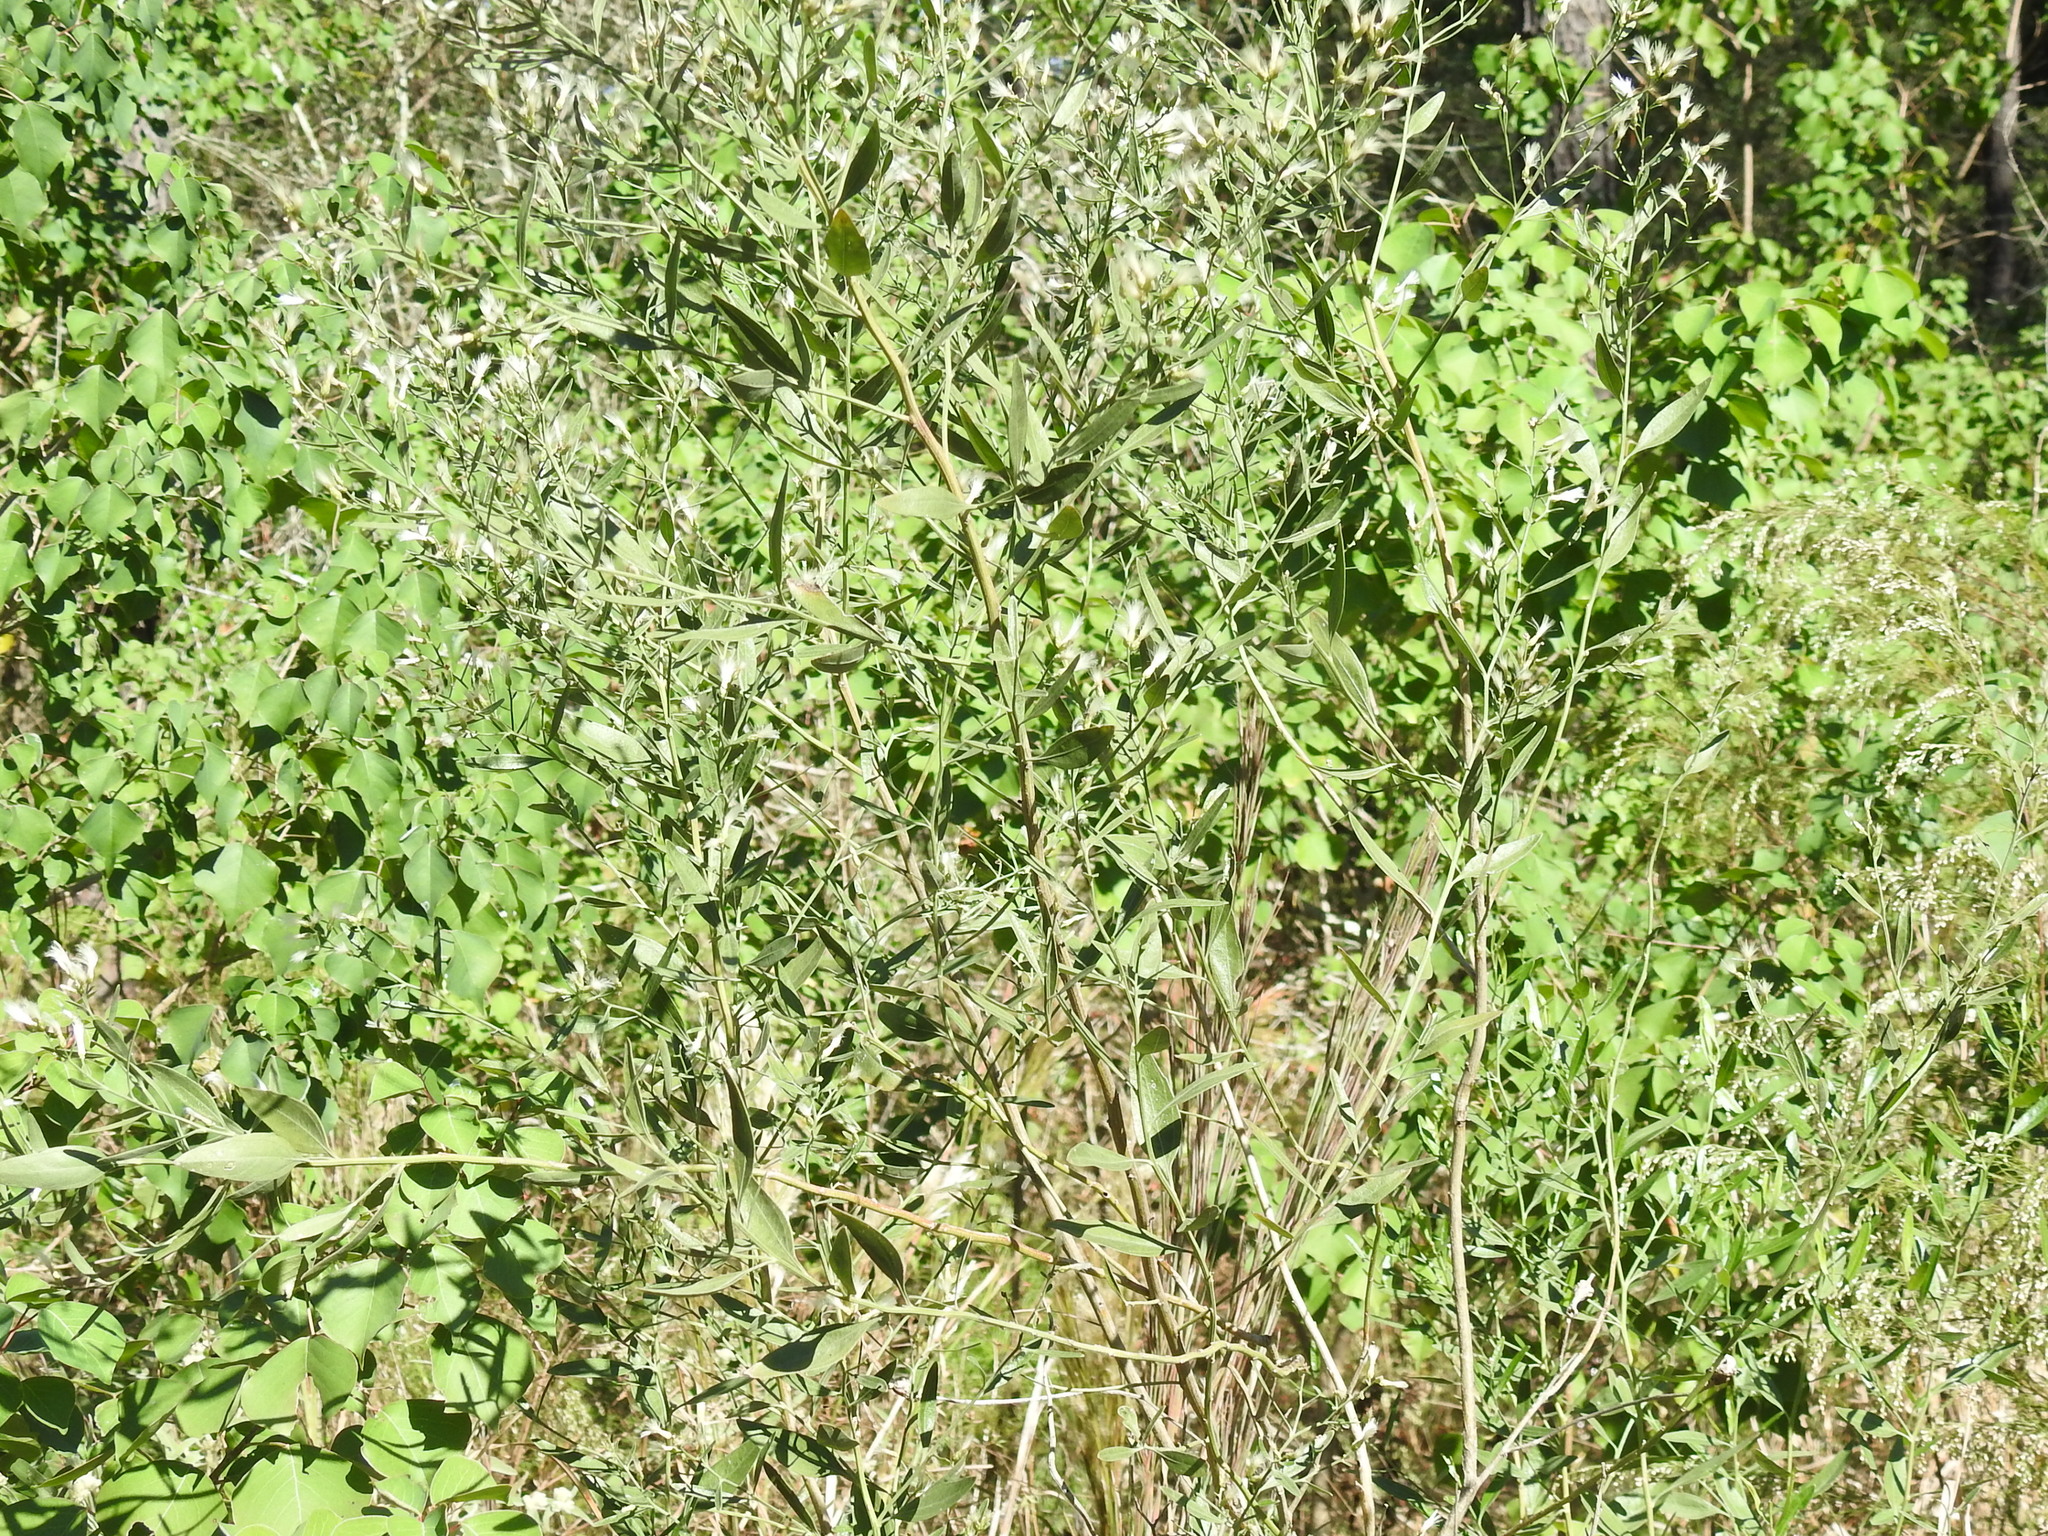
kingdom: Plantae
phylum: Tracheophyta
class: Magnoliopsida
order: Asterales
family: Asteraceae
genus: Baccharis
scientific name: Baccharis halimifolia
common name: Eastern baccharis
